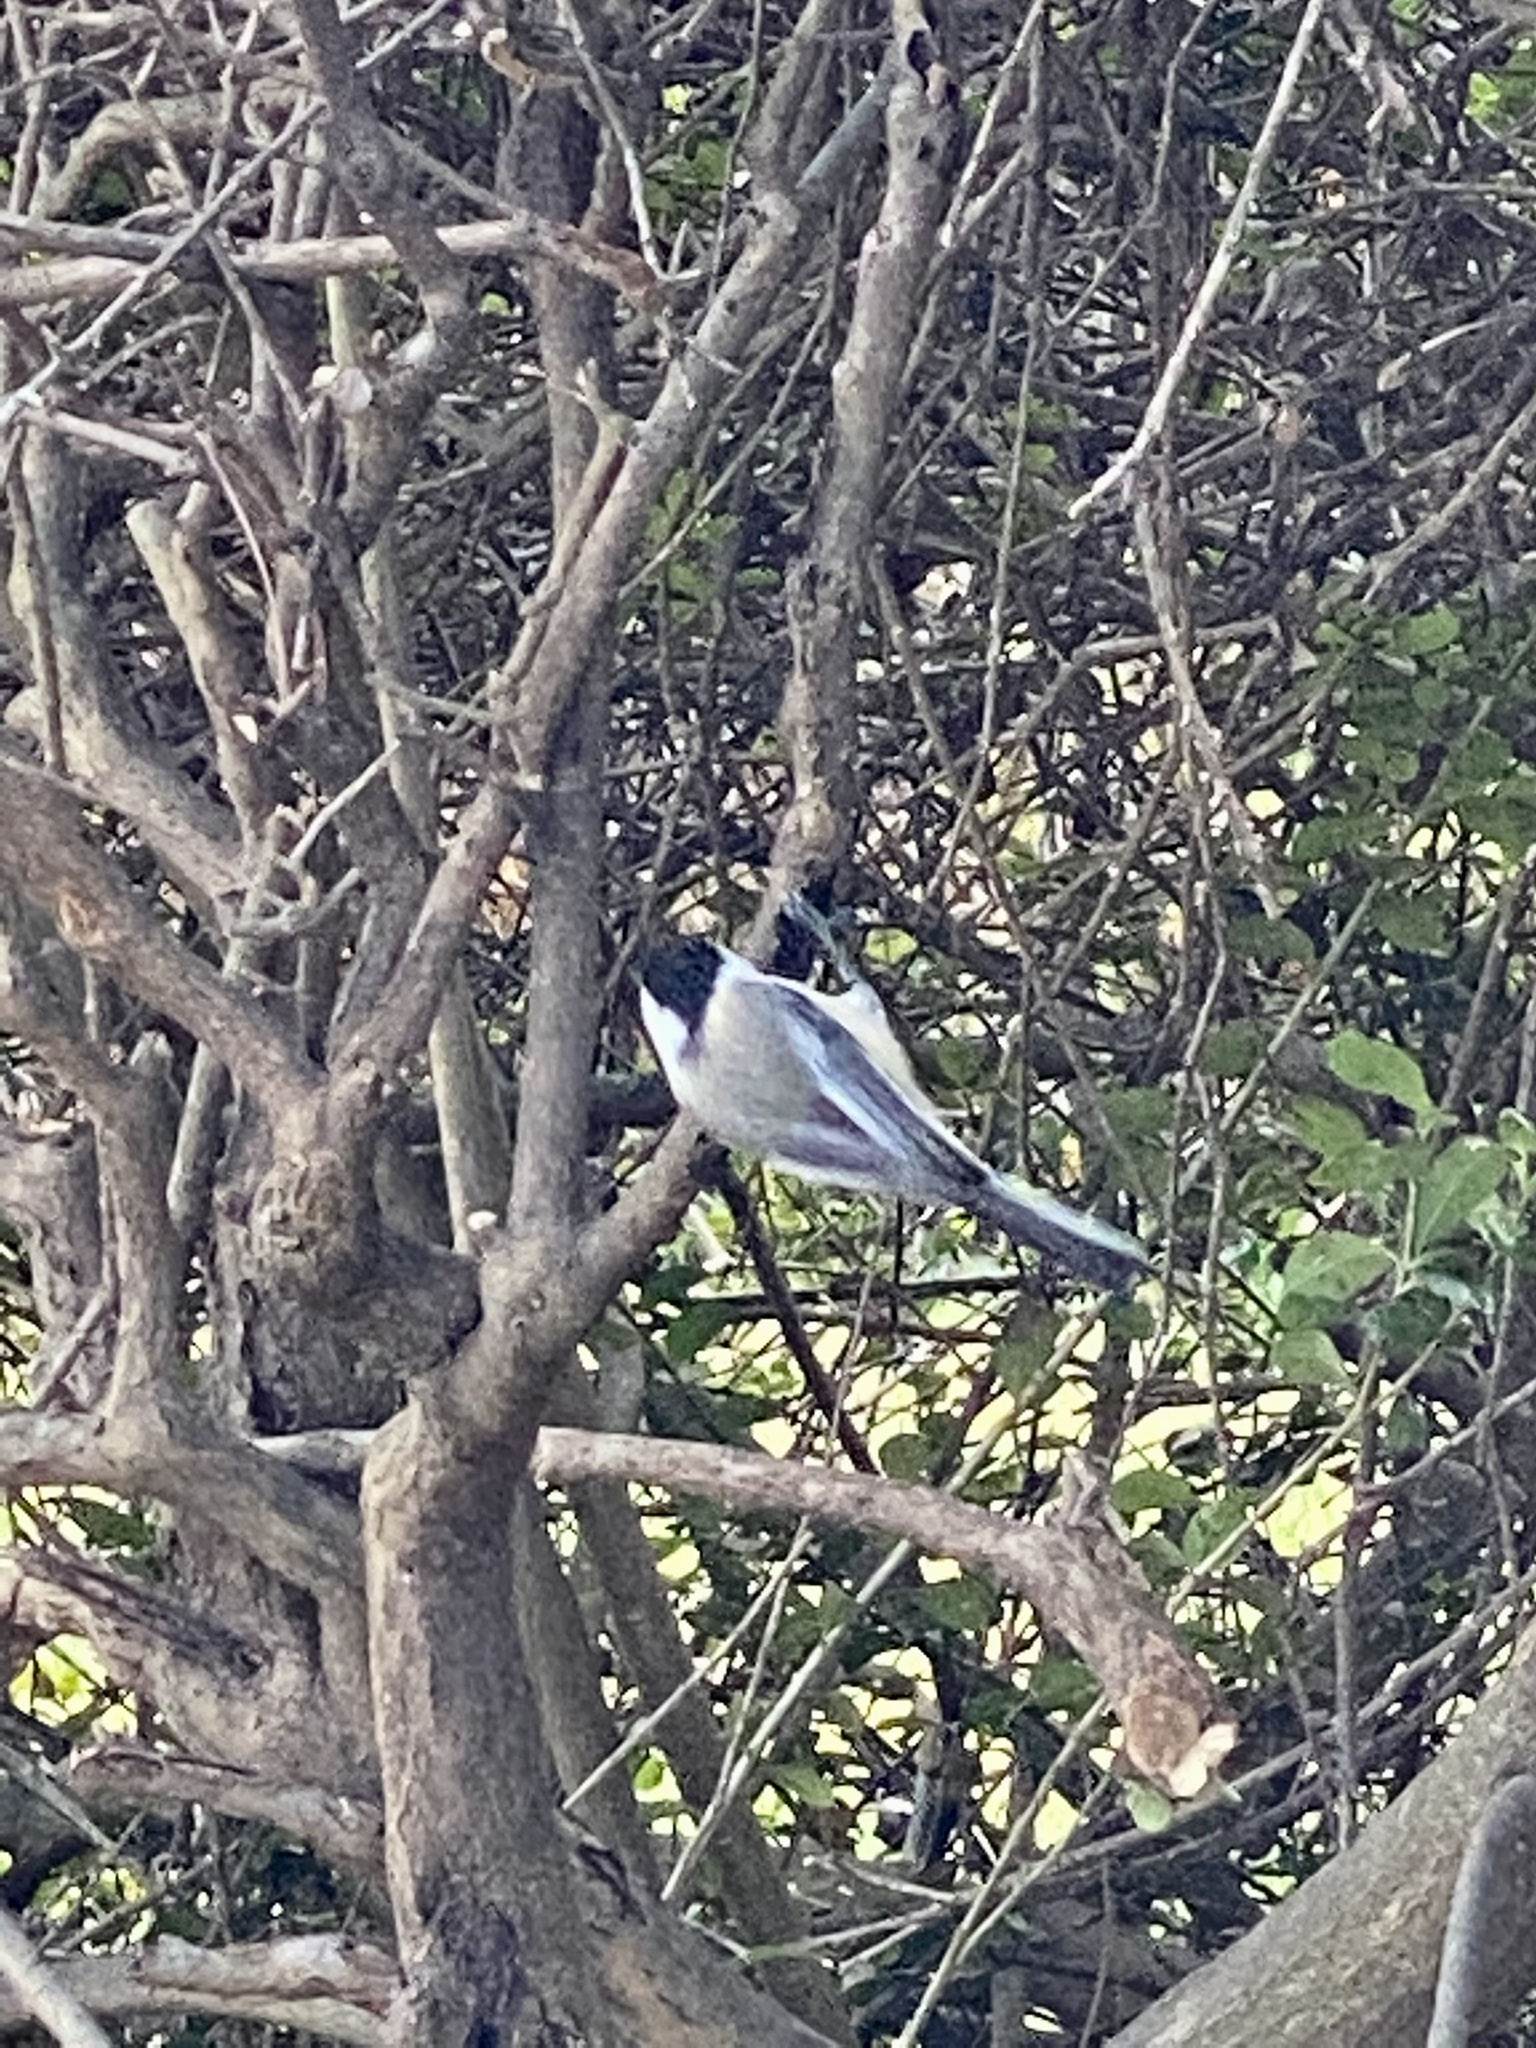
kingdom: Animalia
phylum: Chordata
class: Aves
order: Passeriformes
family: Paridae
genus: Poecile
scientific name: Poecile atricapillus
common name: Black-capped chickadee
